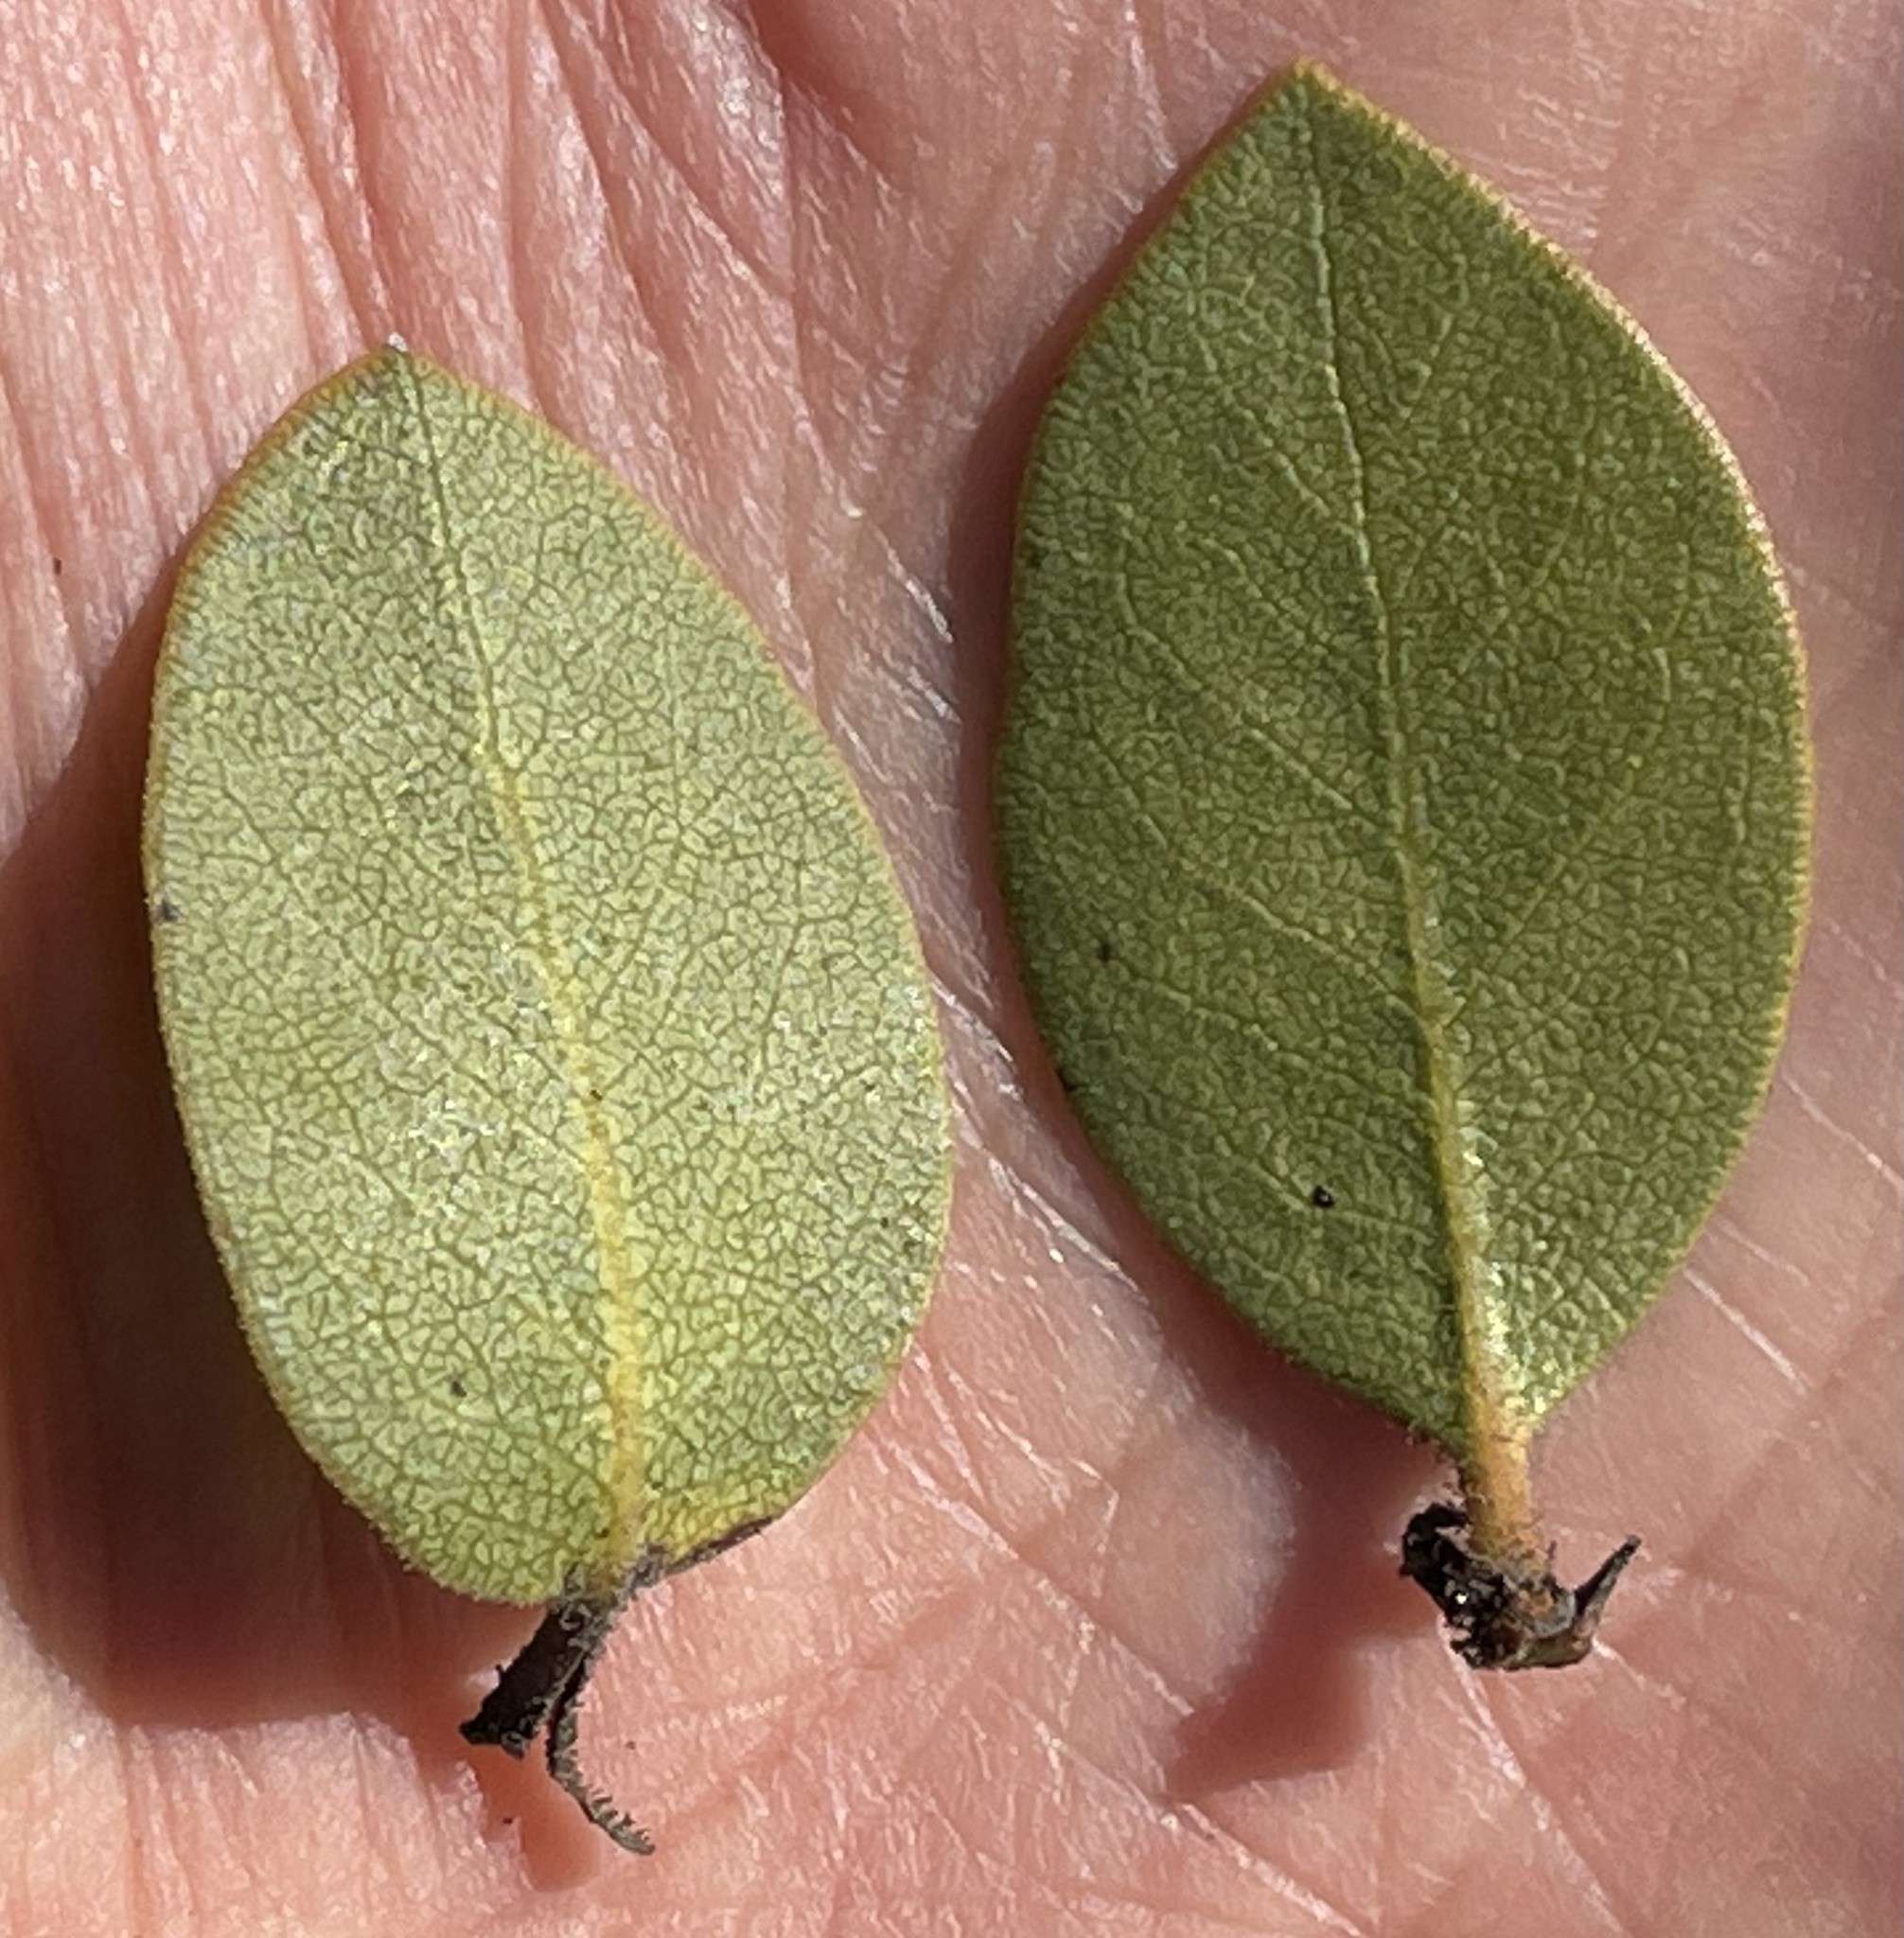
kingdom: Plantae
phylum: Tracheophyta
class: Magnoliopsida
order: Ericales
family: Ericaceae
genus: Arctostaphylos
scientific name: Arctostaphylos montereyensis
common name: Monterey manzanita
